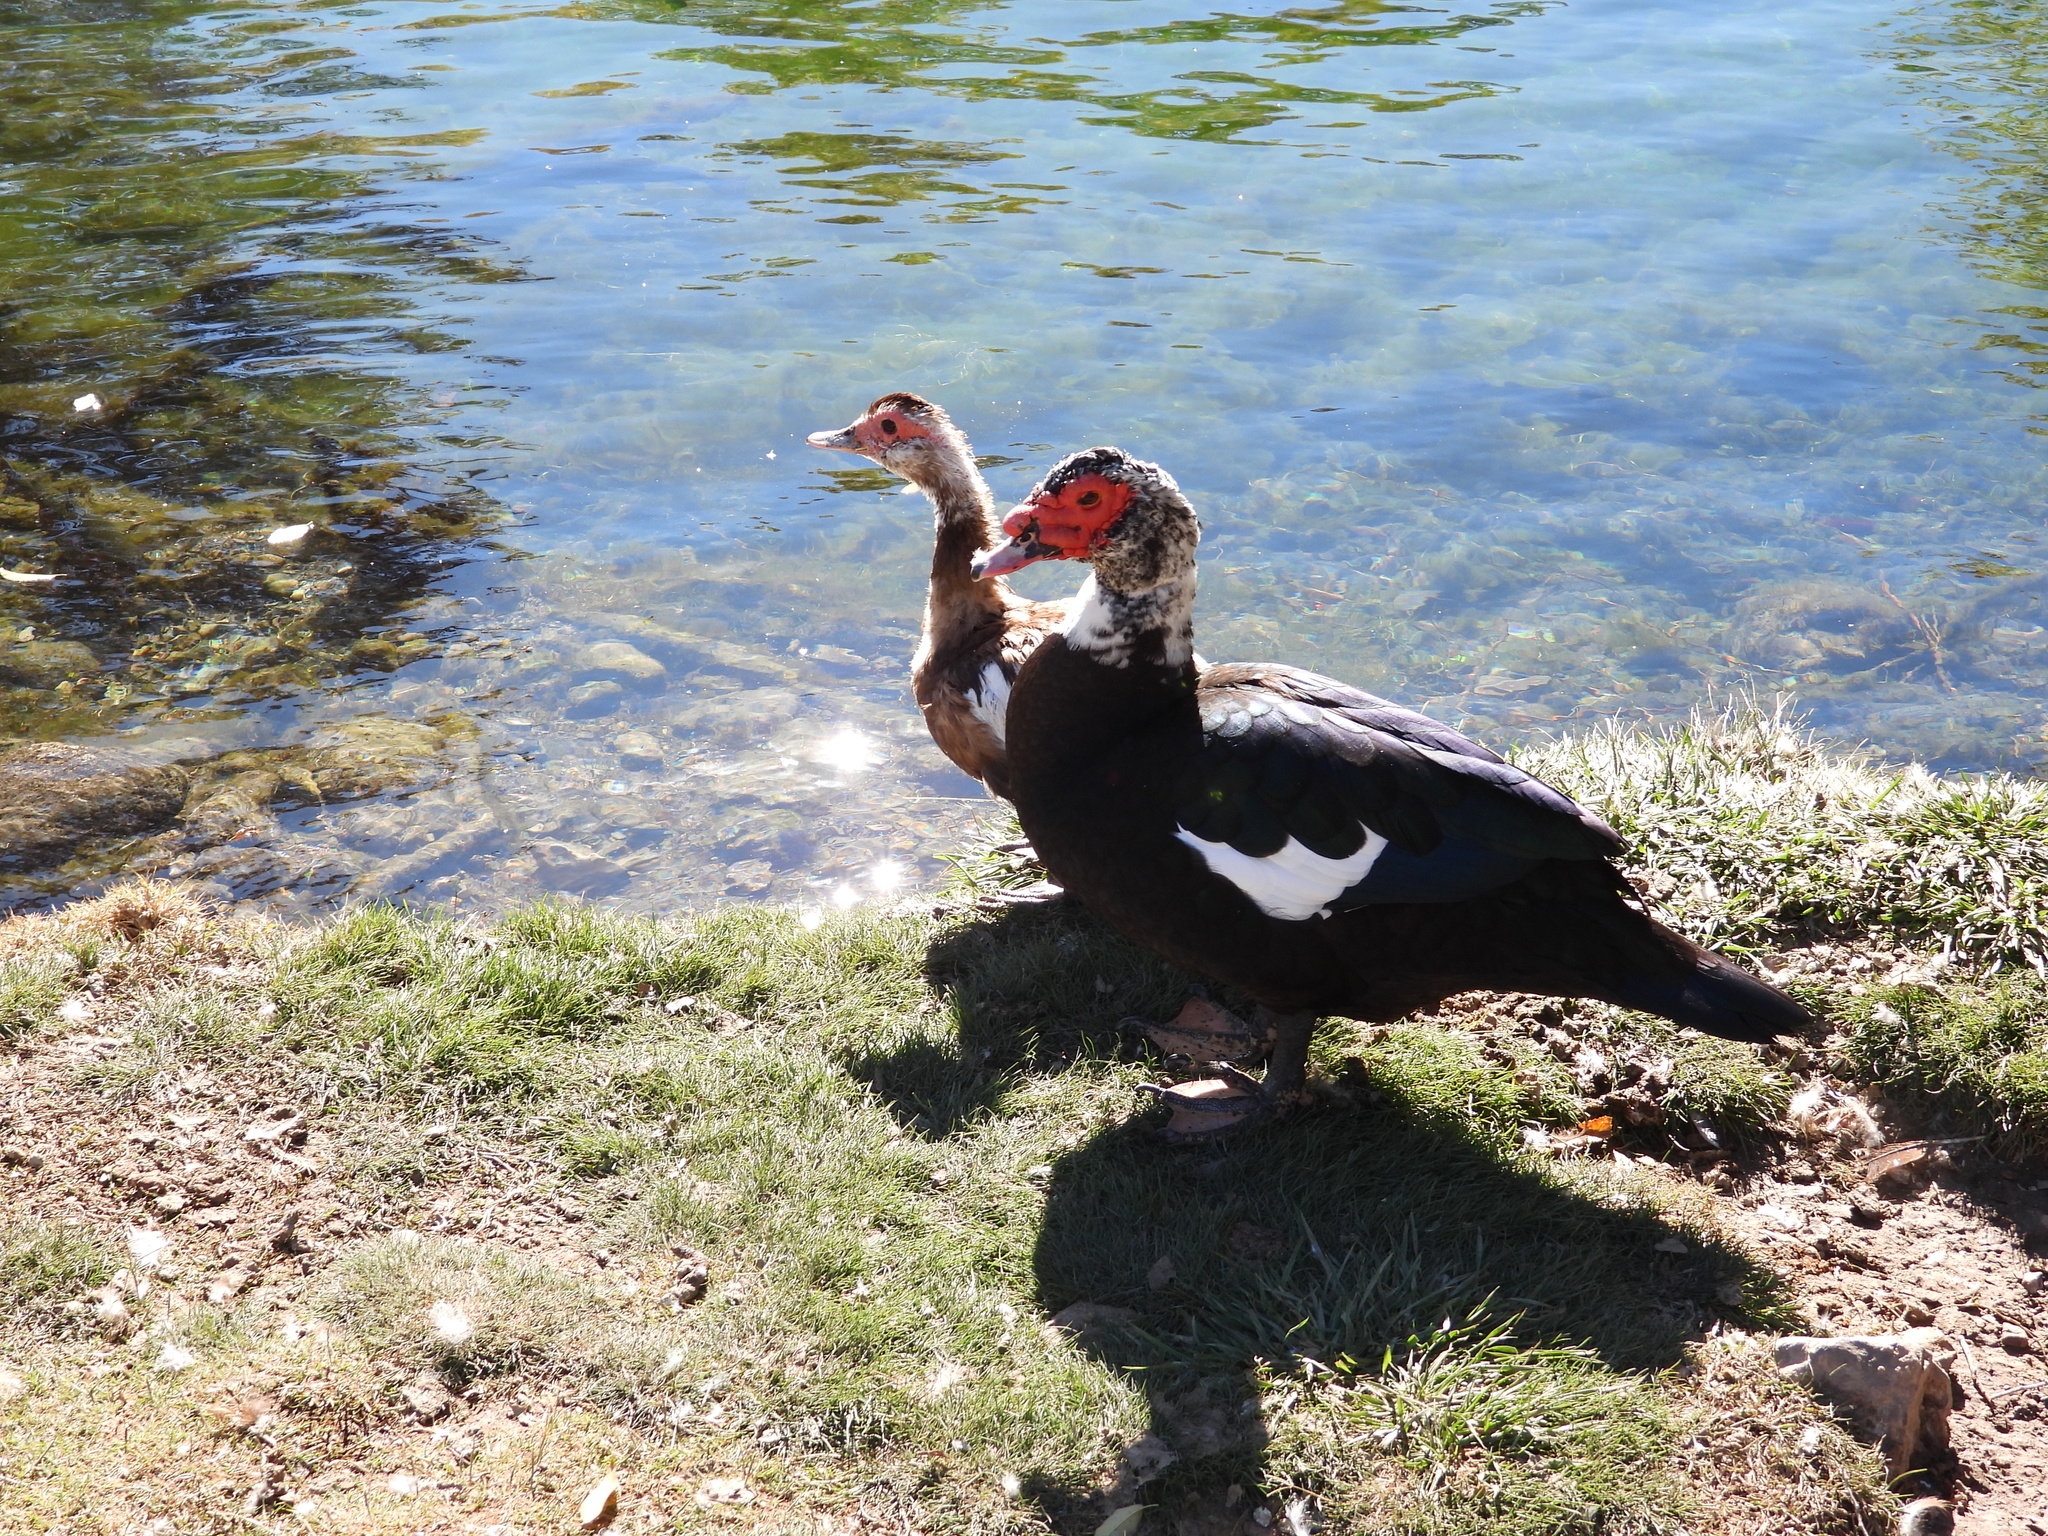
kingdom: Animalia
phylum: Chordata
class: Aves
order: Anseriformes
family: Anatidae
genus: Cairina
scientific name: Cairina moschata
